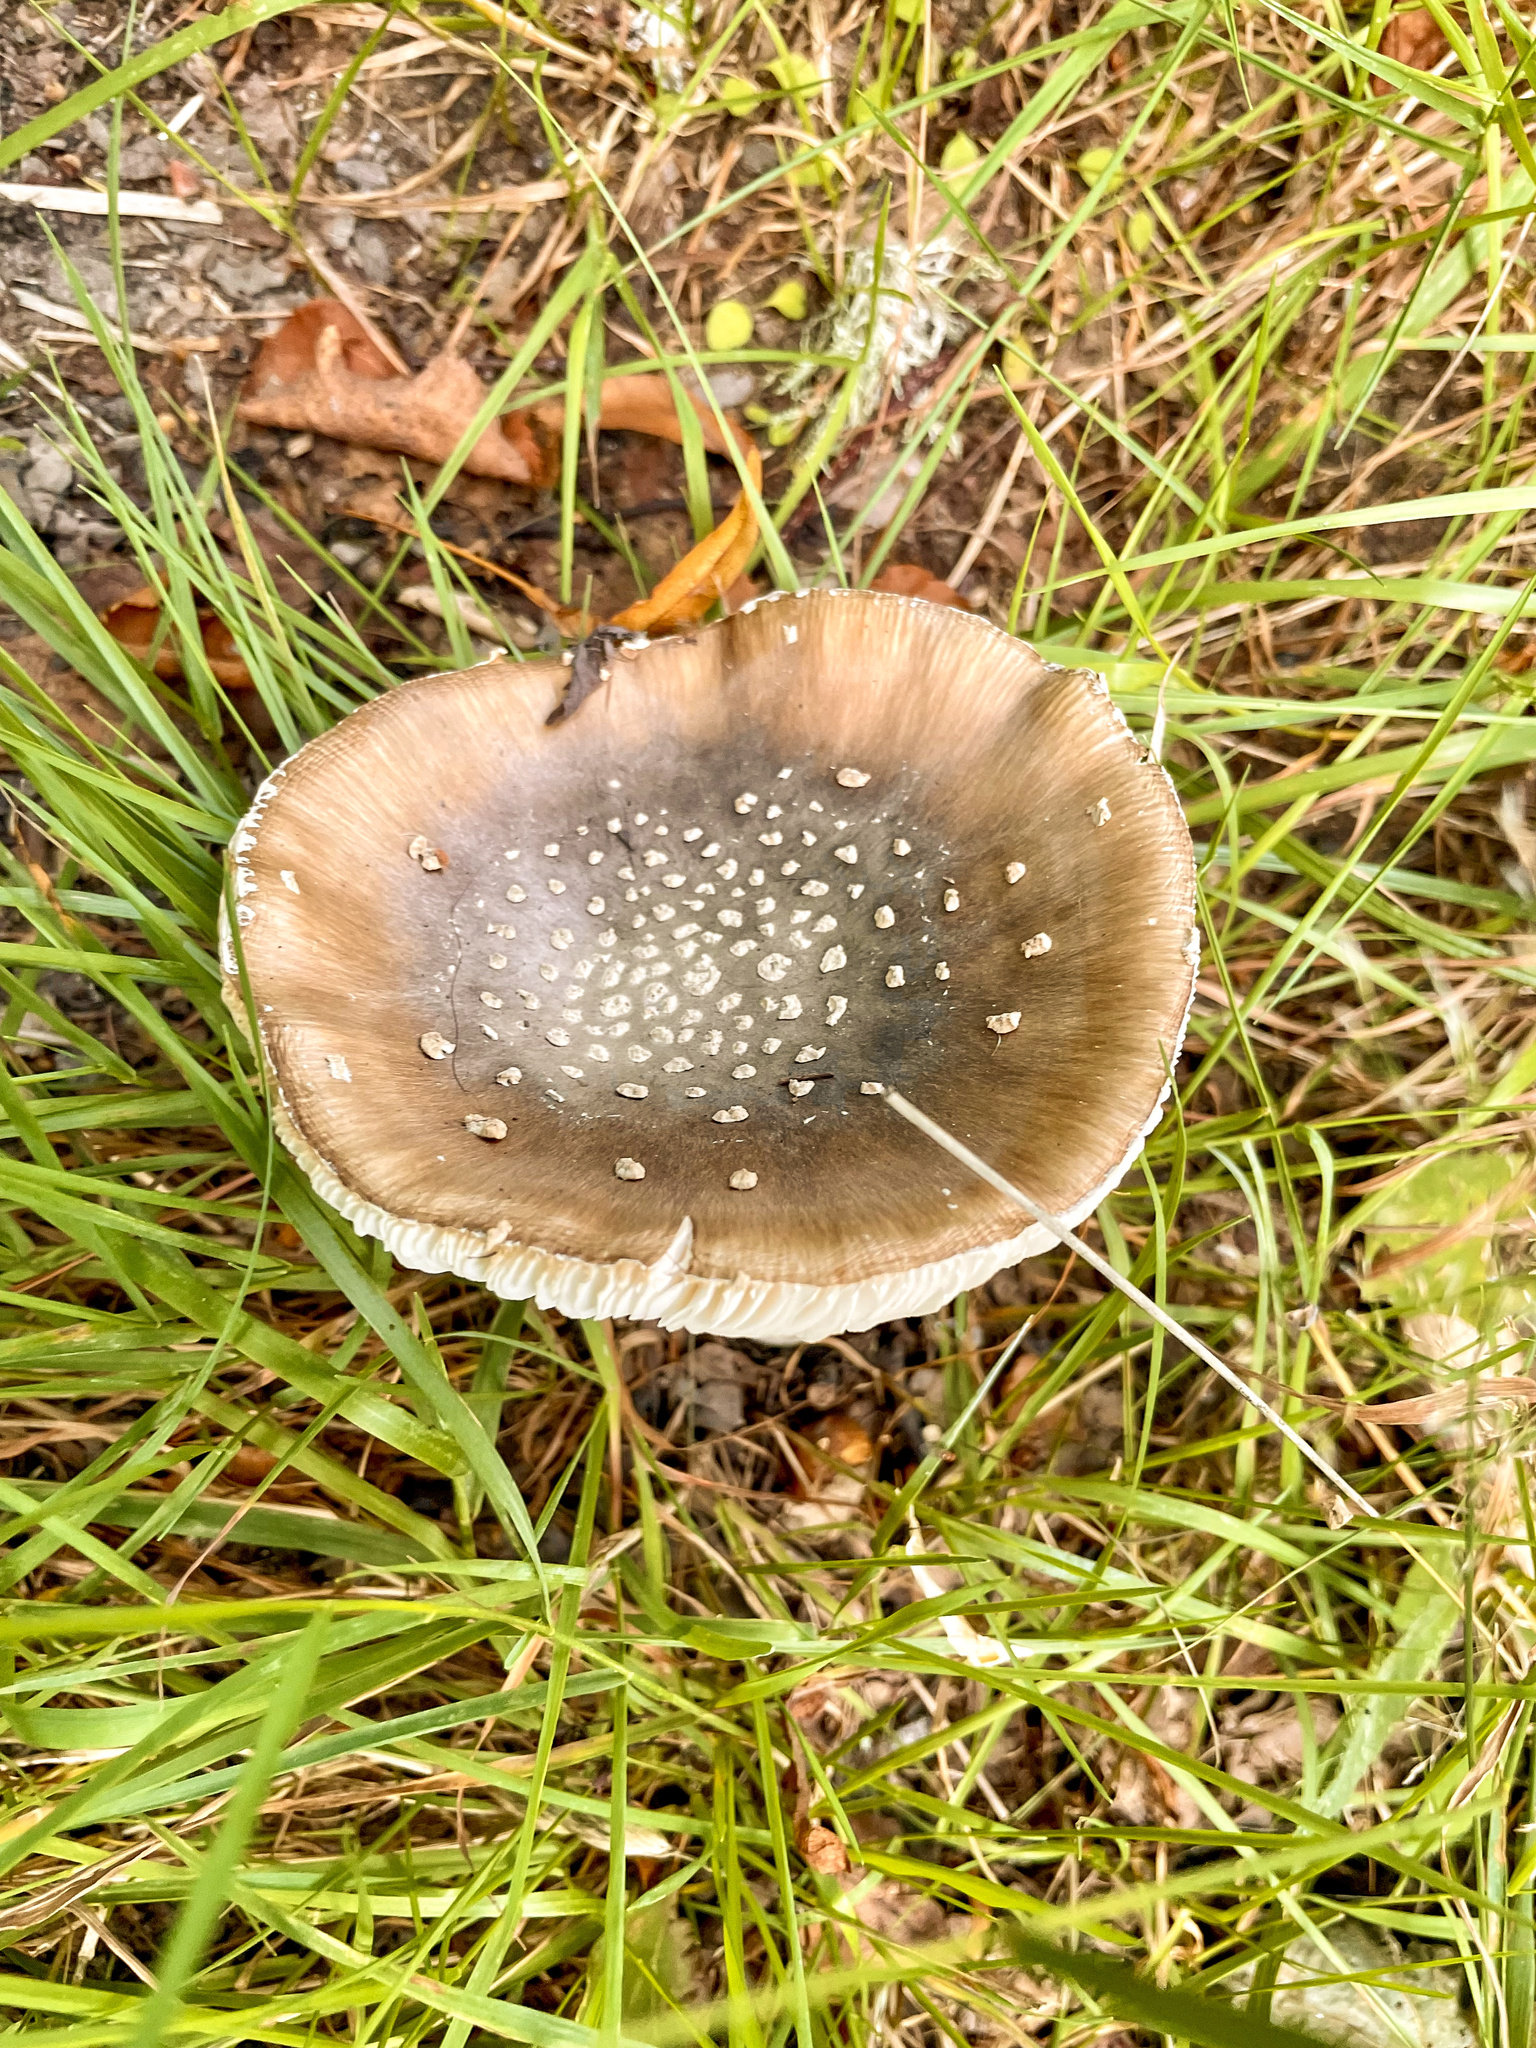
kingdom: Fungi
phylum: Basidiomycota
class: Agaricomycetes
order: Agaricales
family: Amanitaceae
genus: Amanita
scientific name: Amanita pantherina
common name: Panthercap
